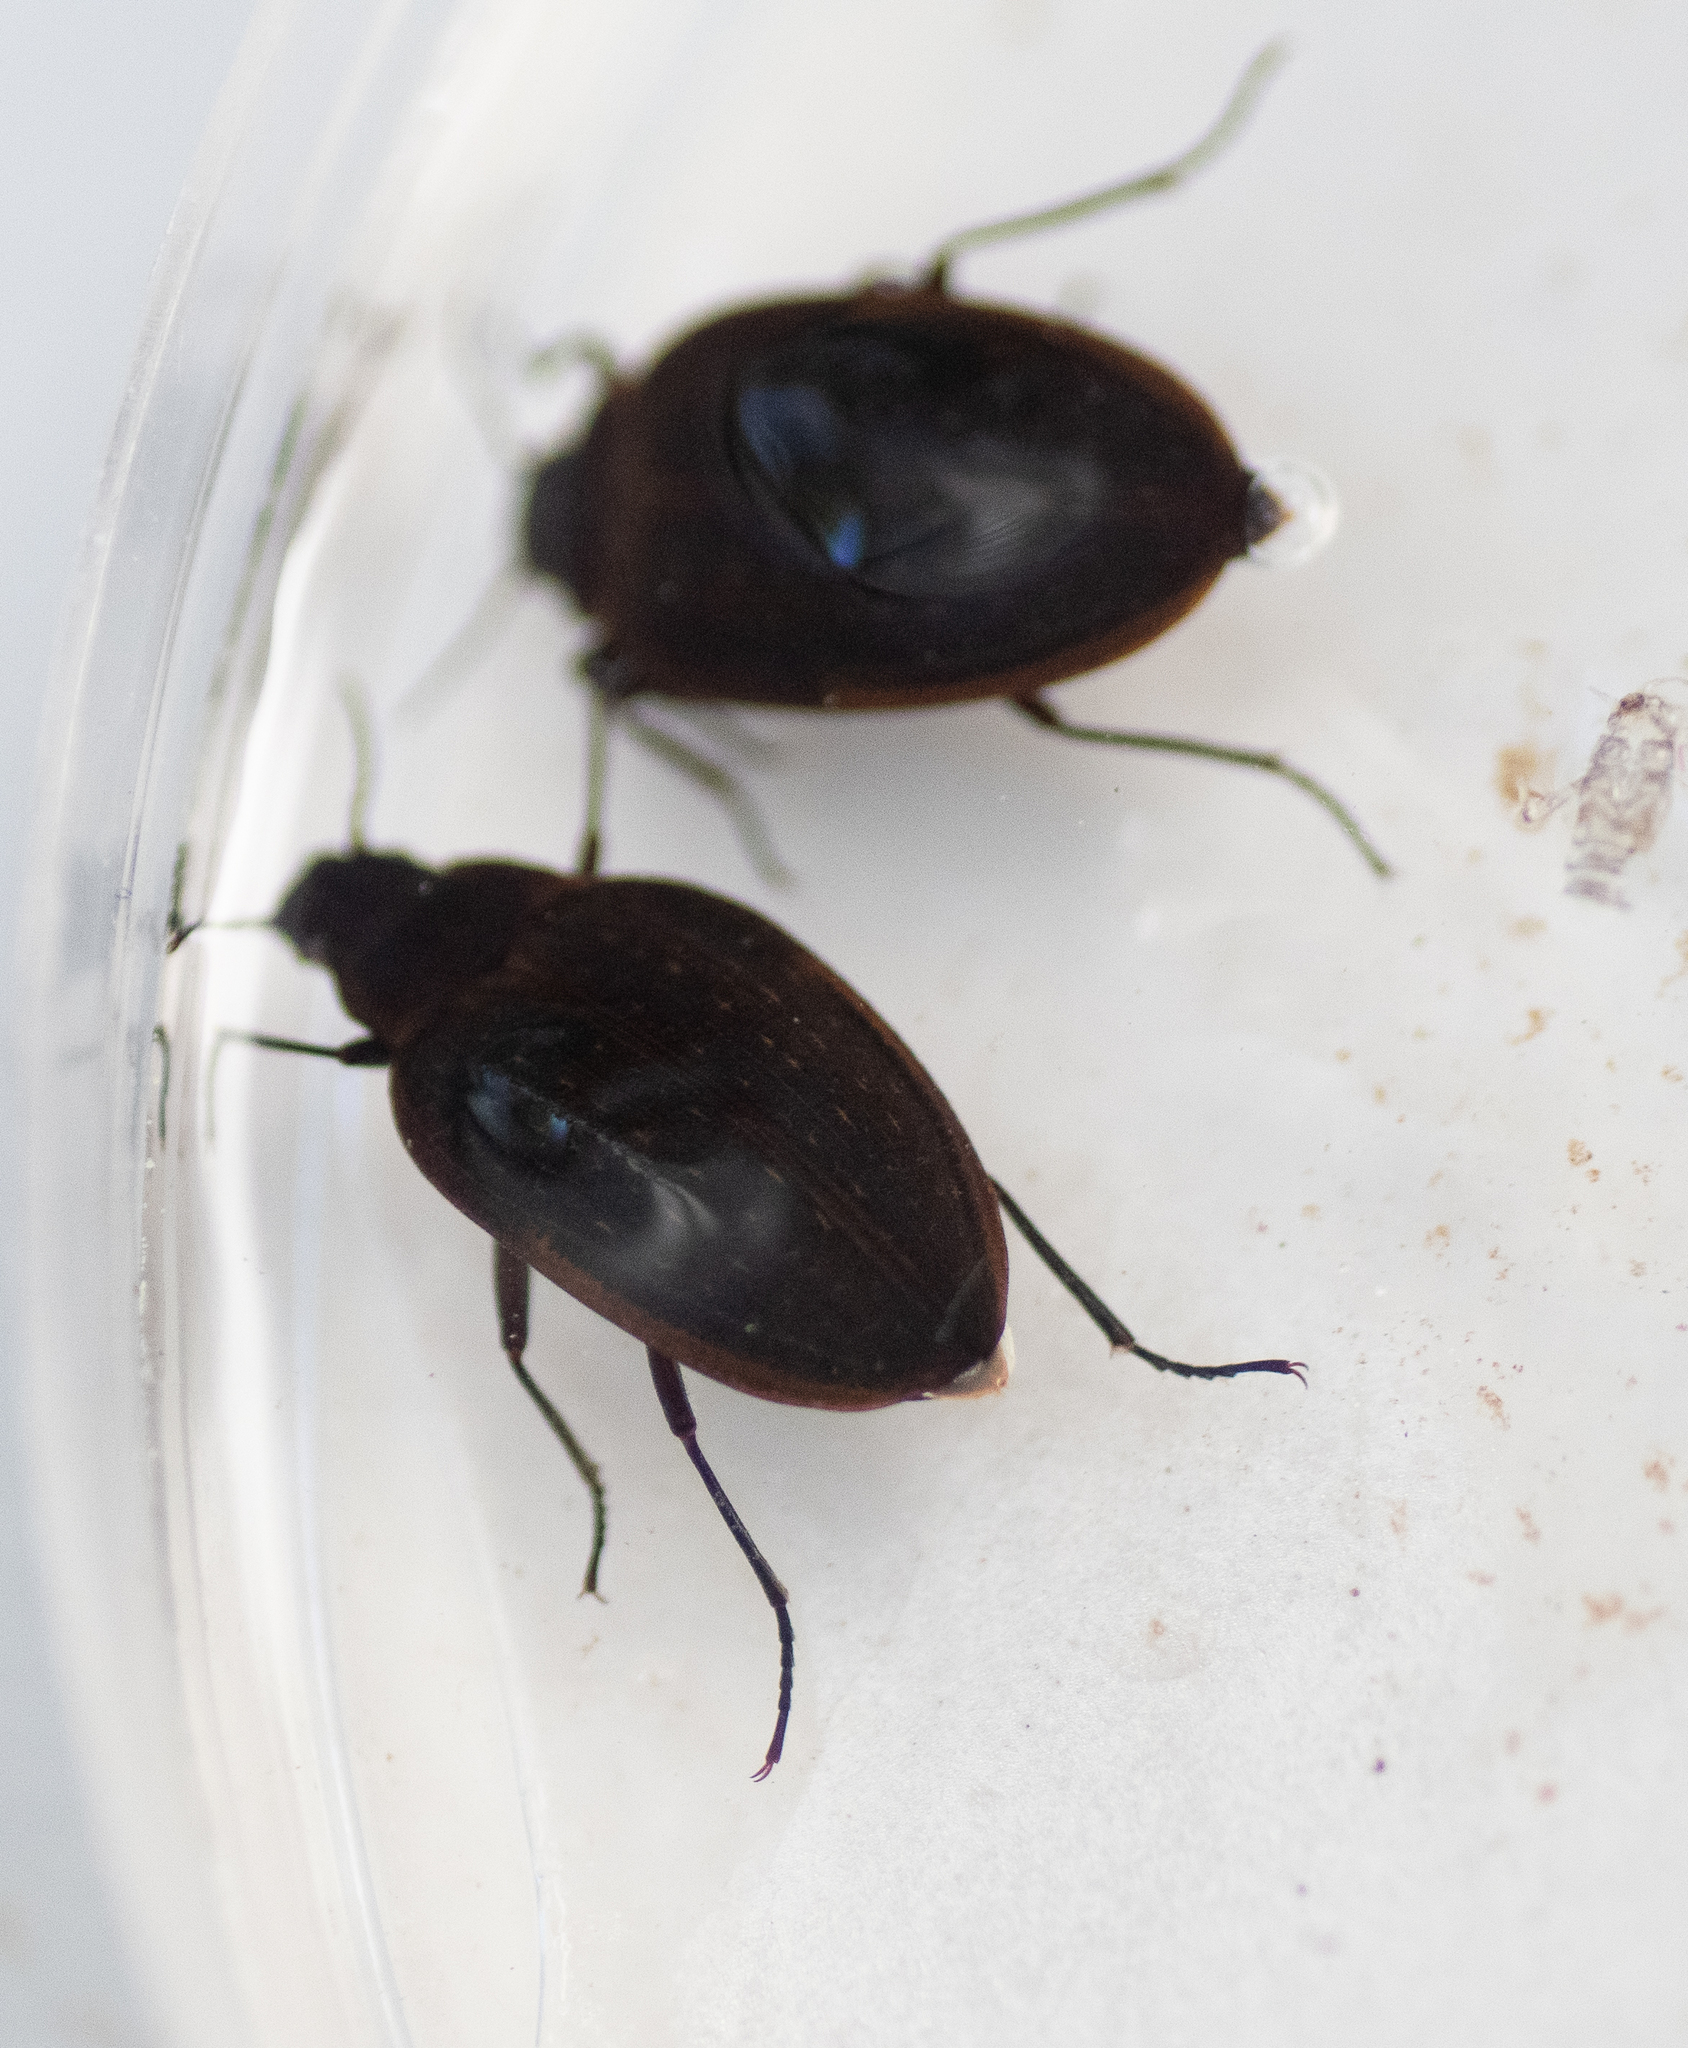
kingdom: Animalia
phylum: Arthropoda
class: Insecta
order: Coleoptera
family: Amphizoidae
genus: Amphizoa
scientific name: Amphizoa
